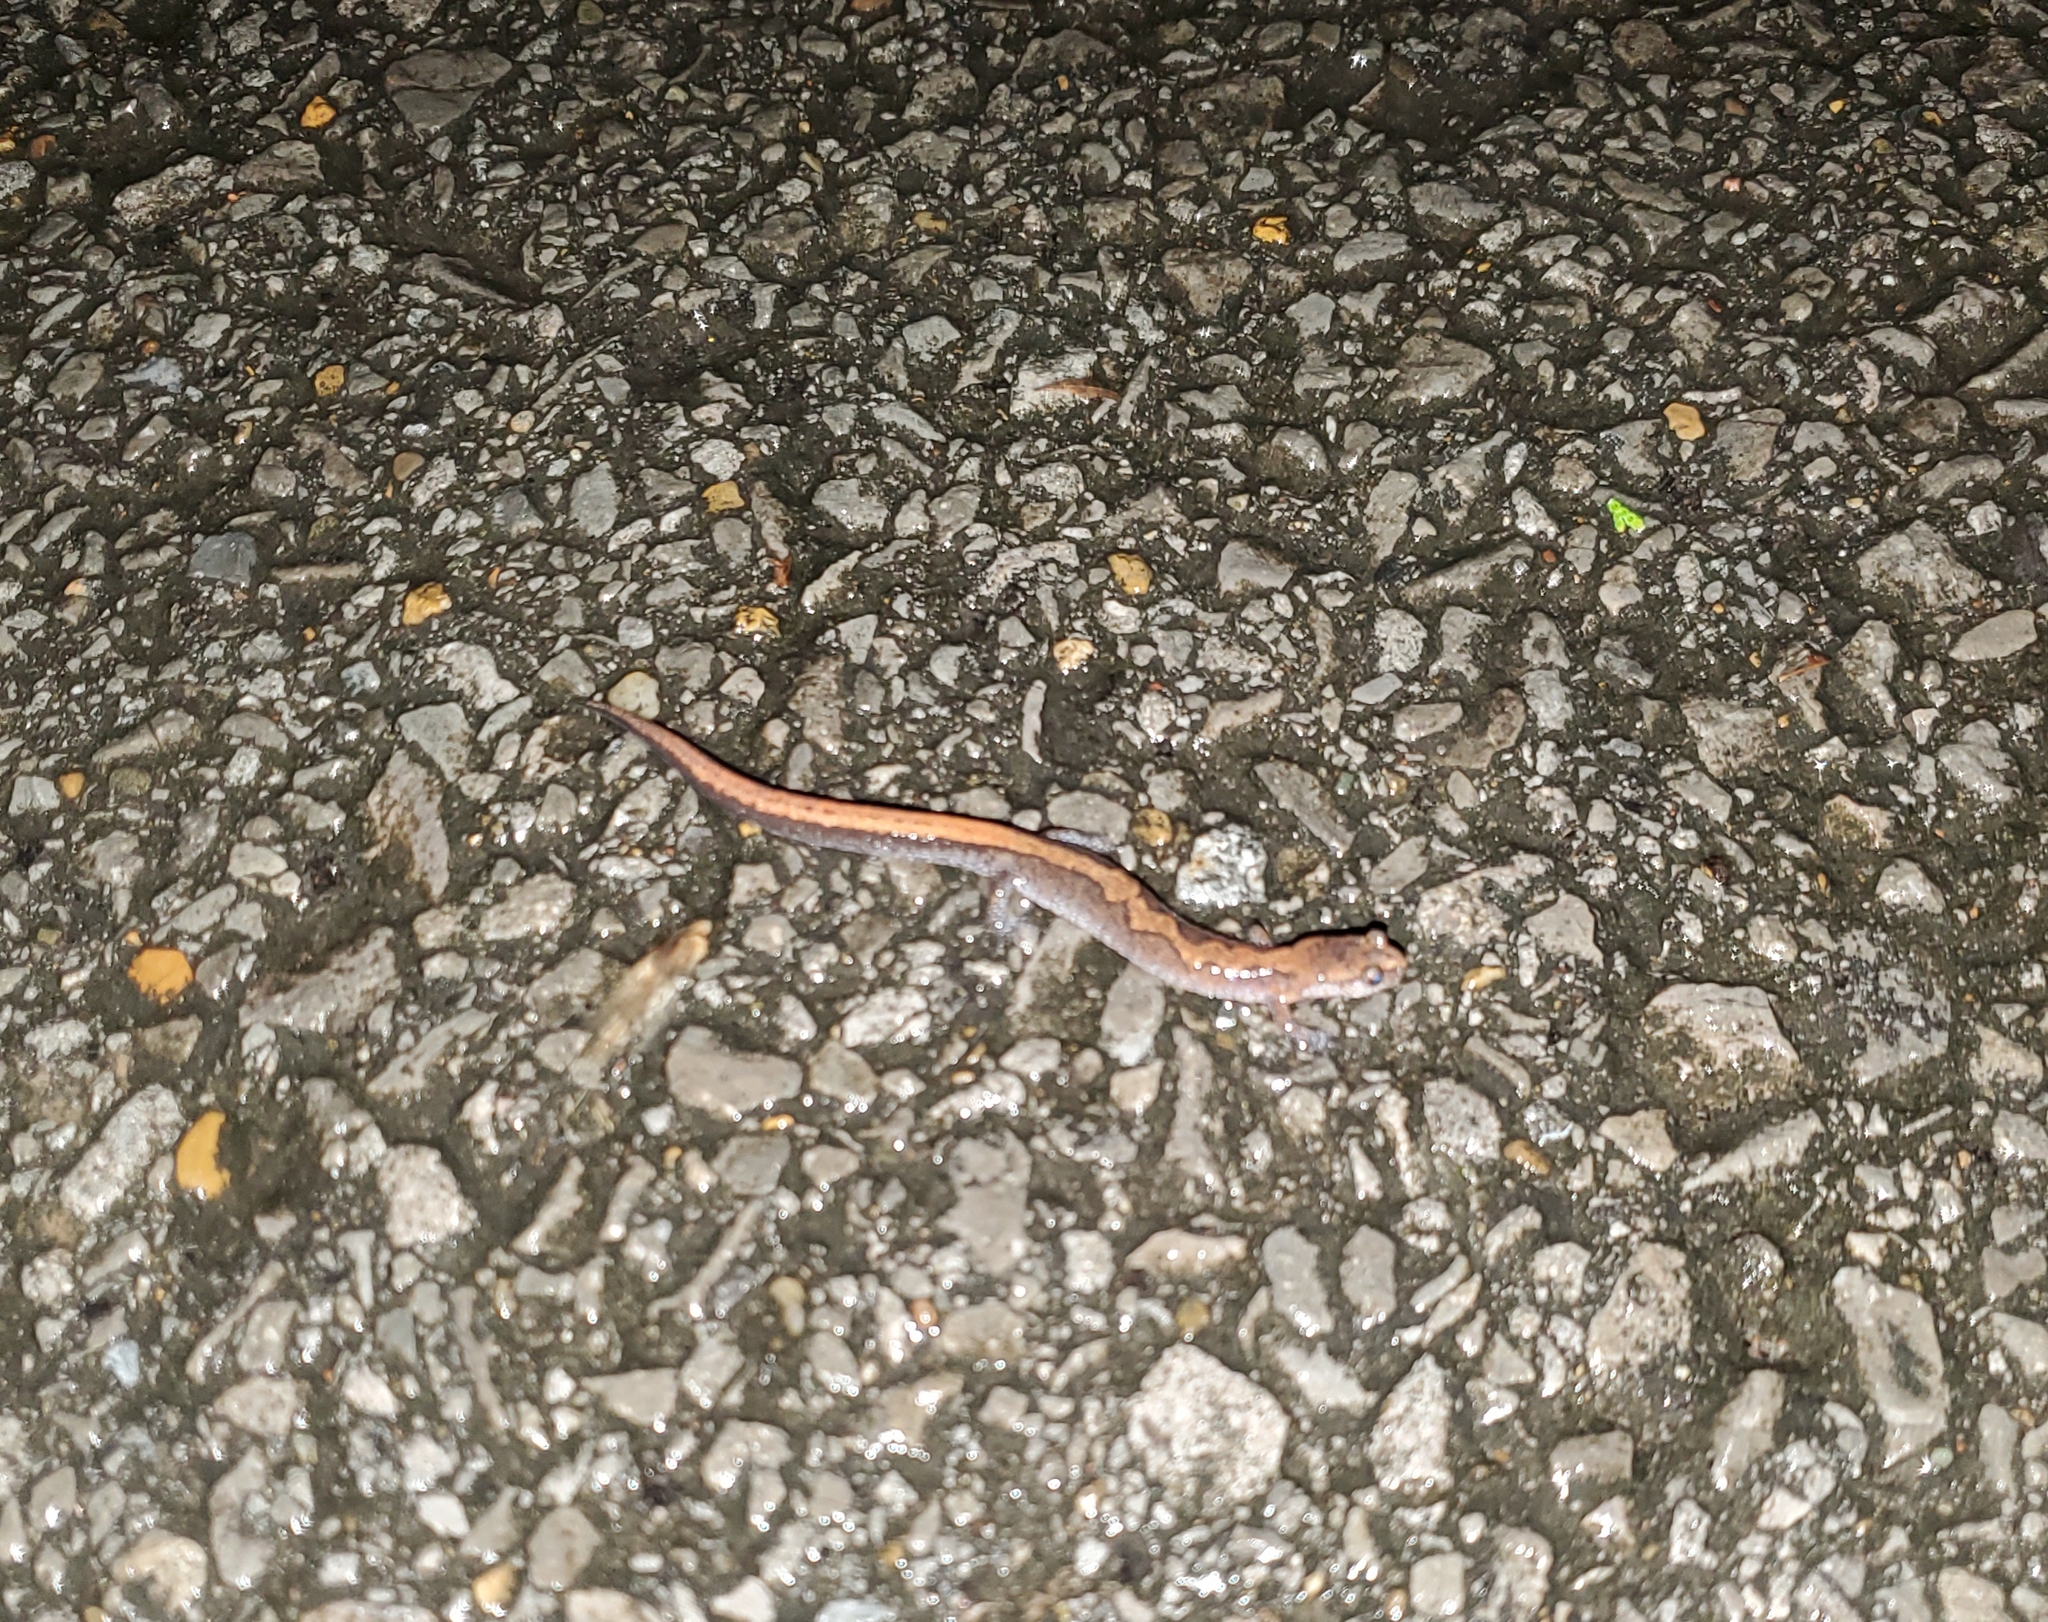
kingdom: Animalia
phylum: Chordata
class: Amphibia
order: Caudata
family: Plethodontidae
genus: Plethodon
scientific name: Plethodon dorsalis
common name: Northern zigzag salamander
